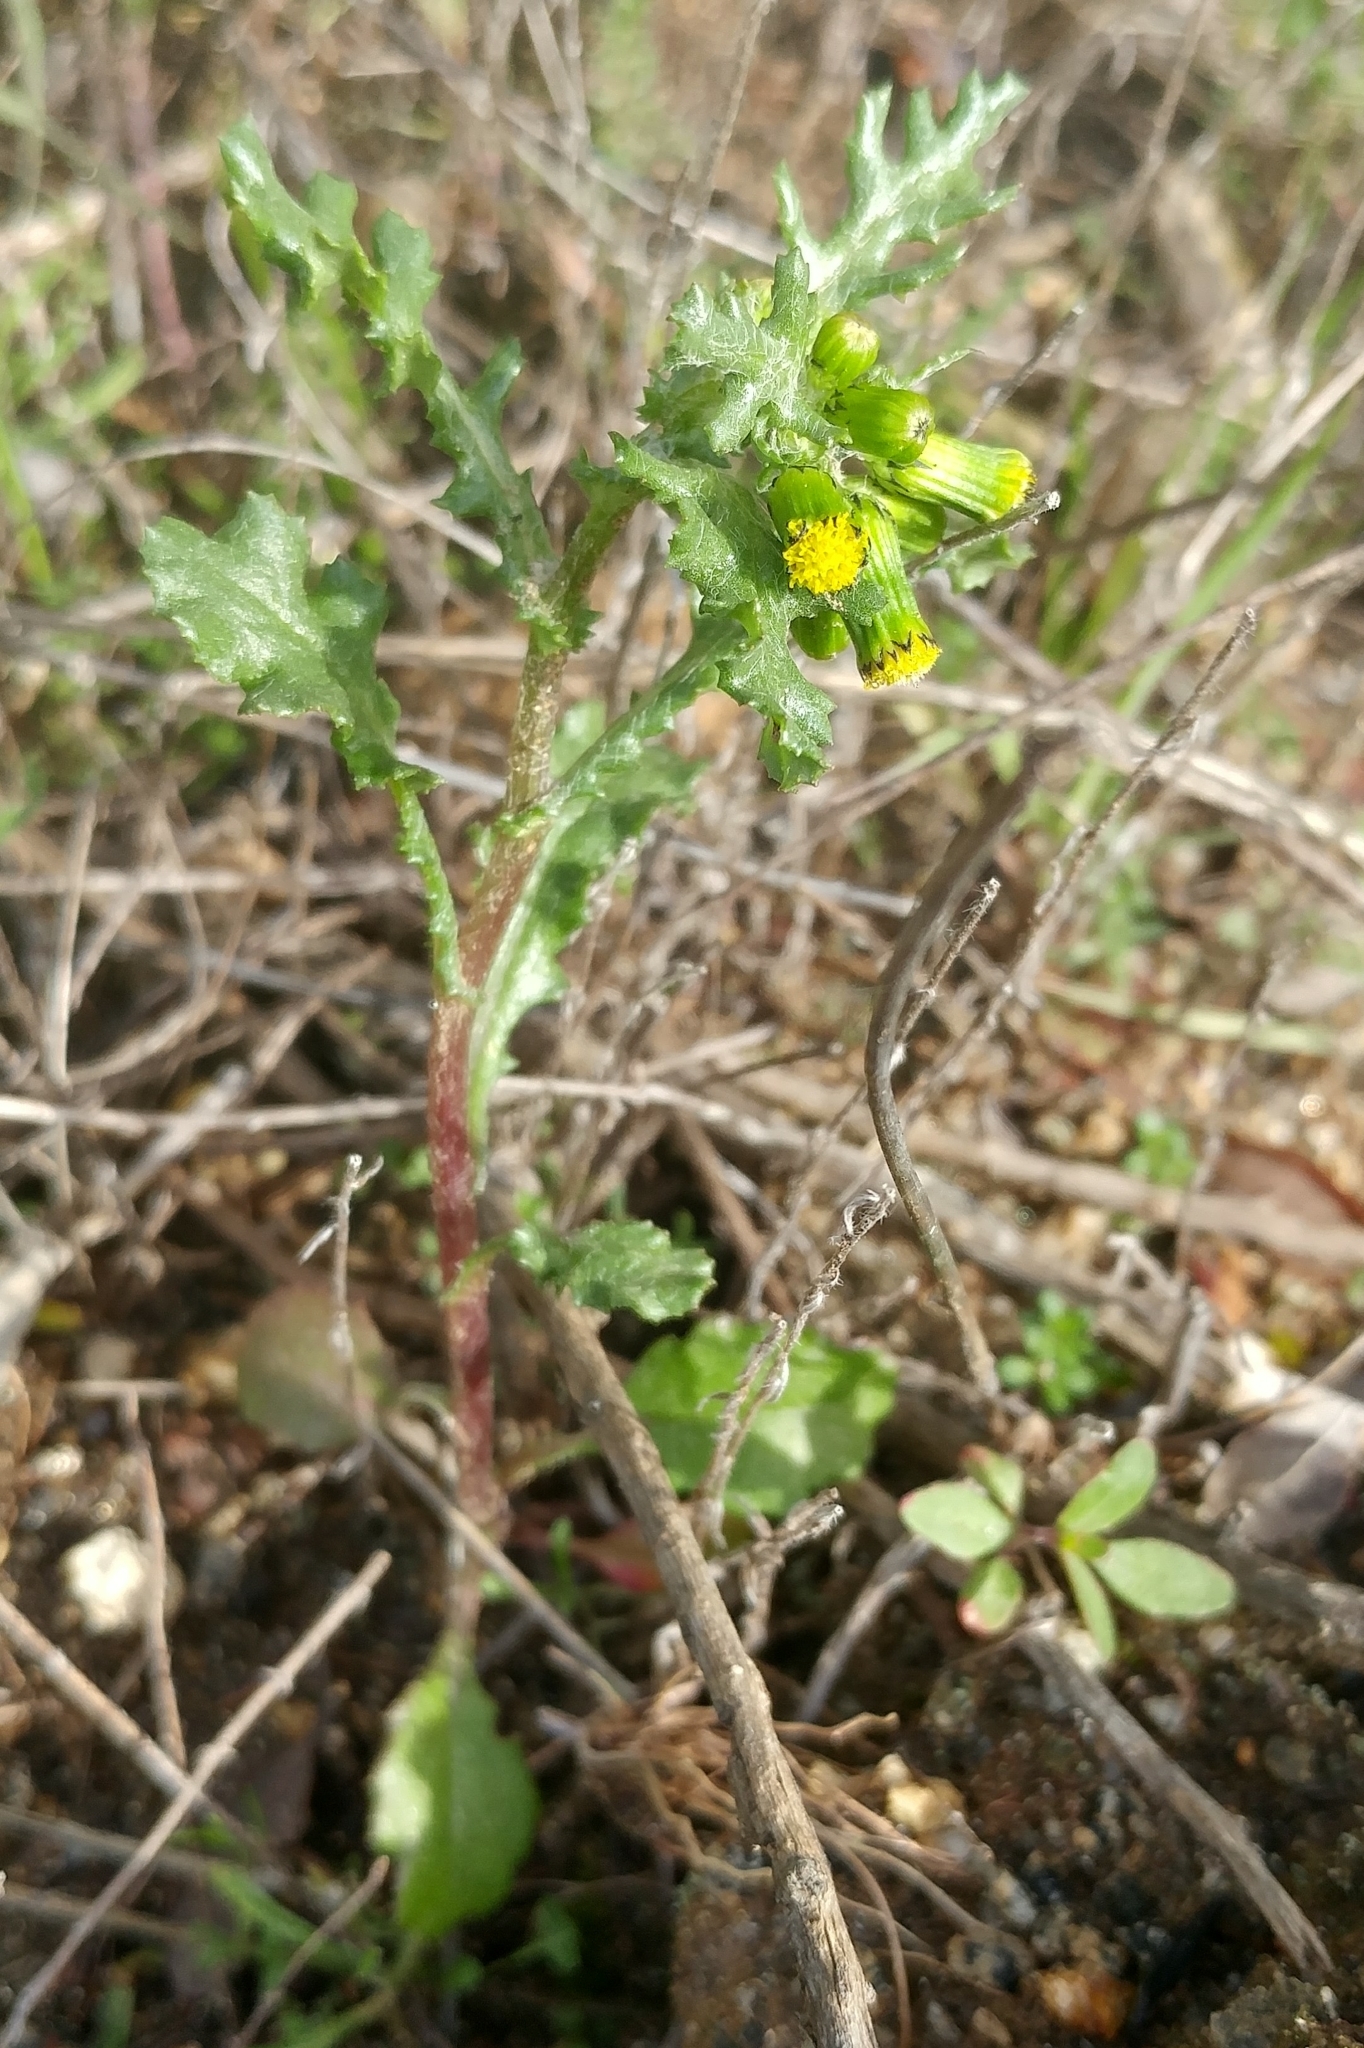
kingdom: Plantae
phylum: Tracheophyta
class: Magnoliopsida
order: Asterales
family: Asteraceae
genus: Senecio
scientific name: Senecio vulgaris
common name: Old-man-in-the-spring
